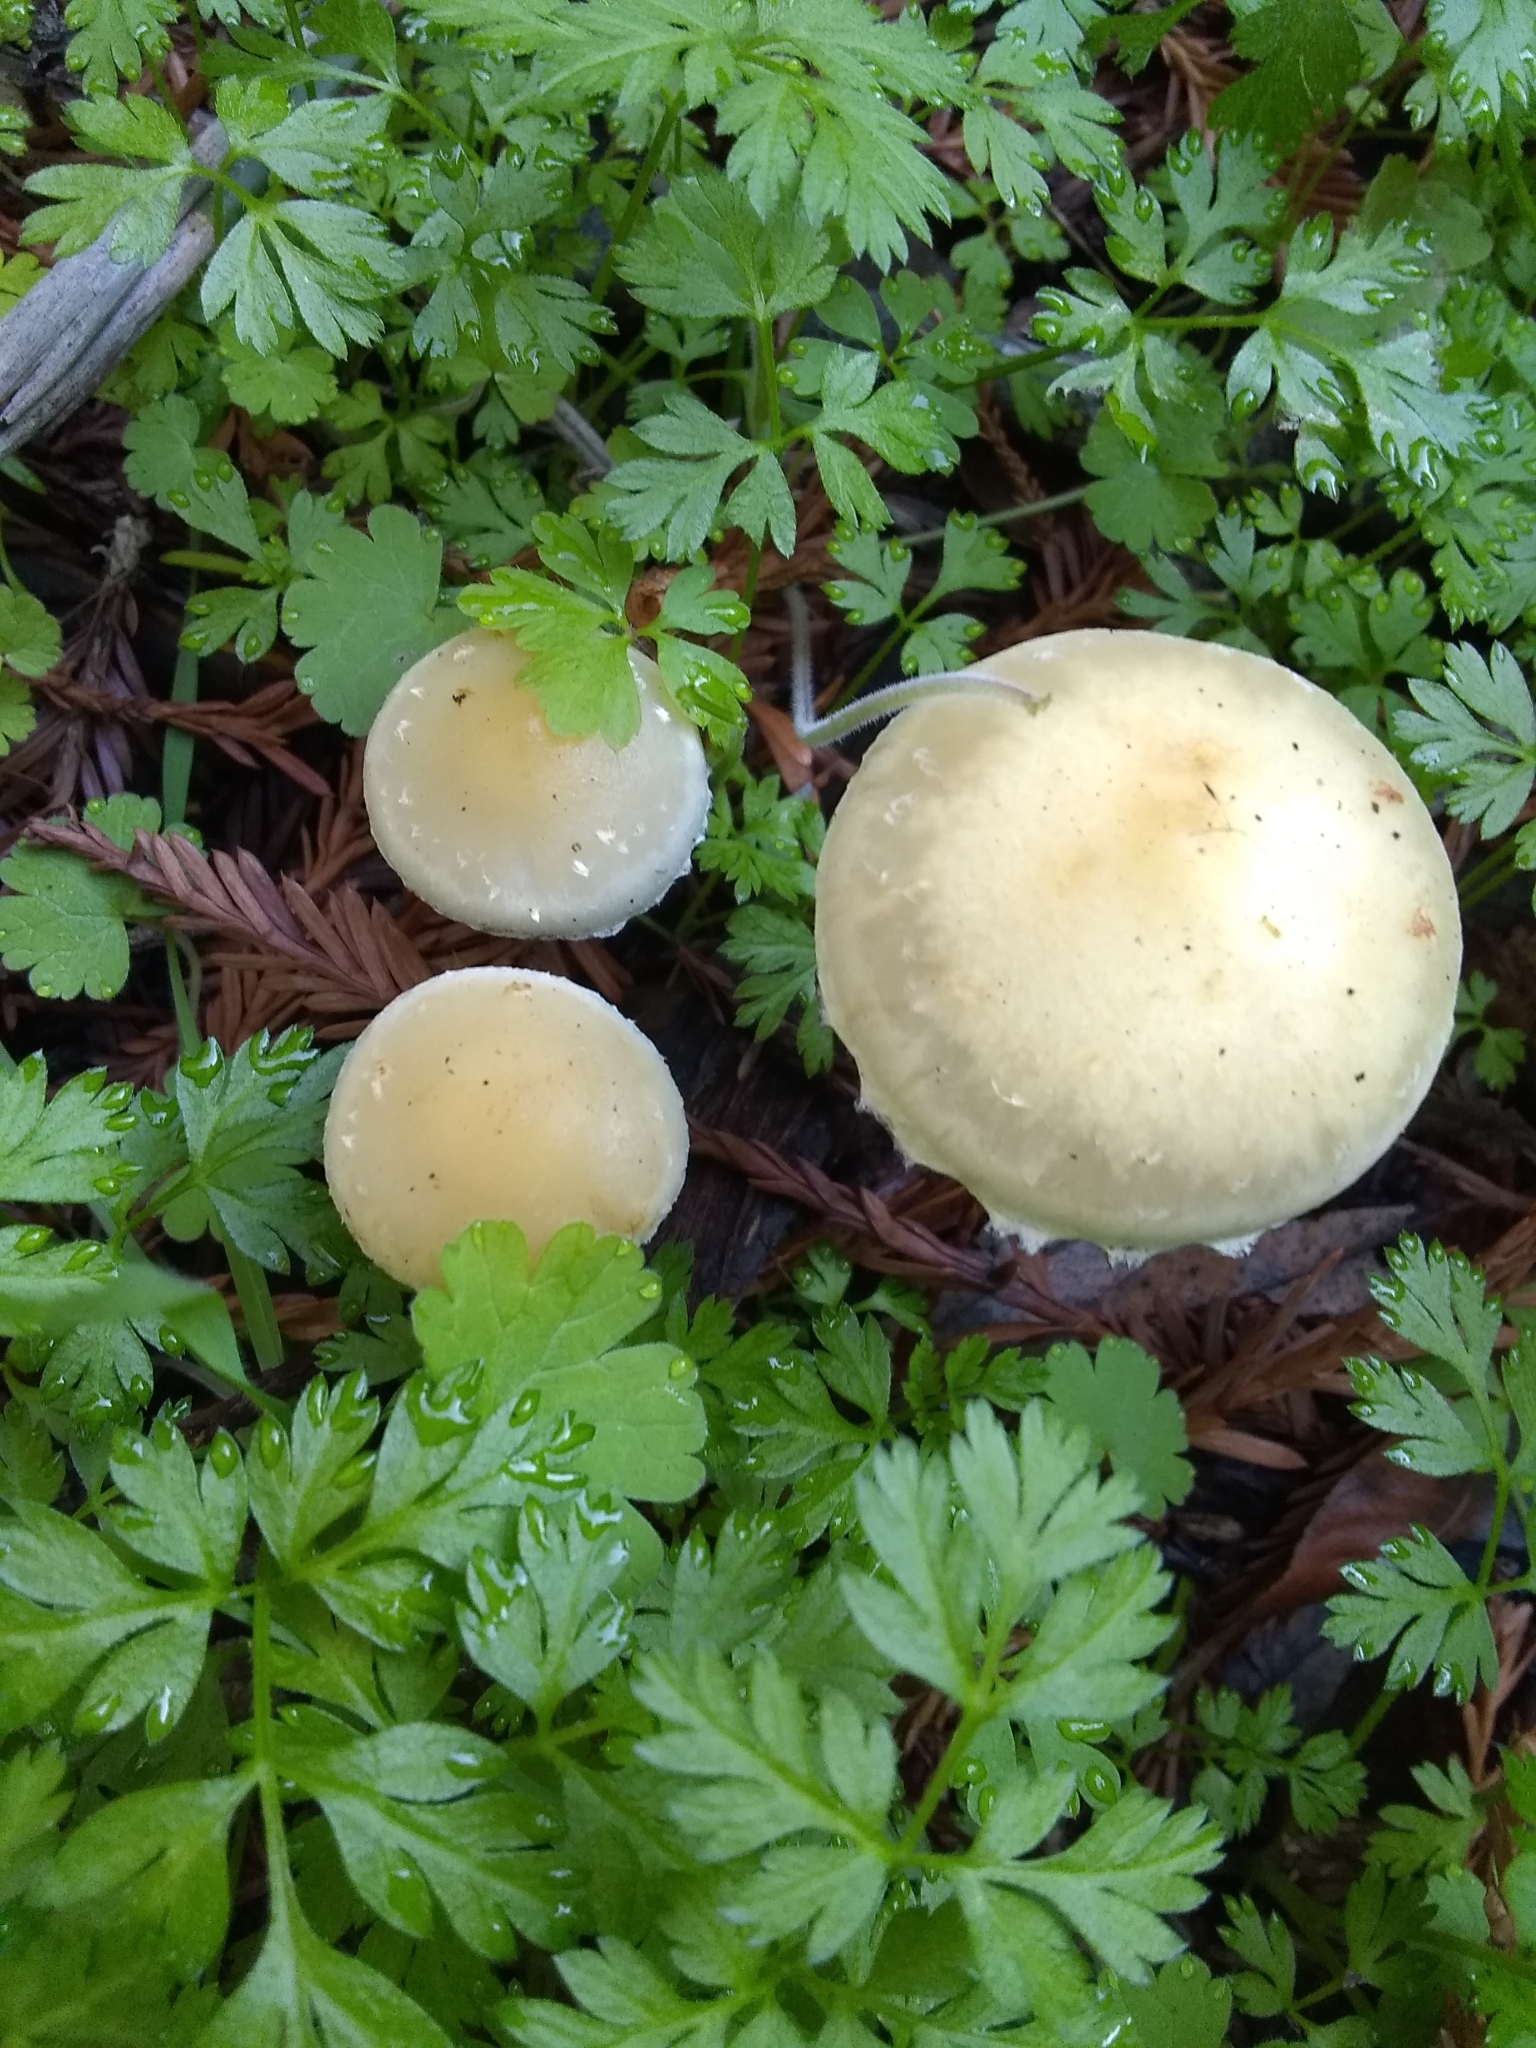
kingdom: Fungi
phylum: Basidiomycota
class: Agaricomycetes
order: Agaricales
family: Strophariaceae
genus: Leratiomyces
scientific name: Leratiomyces percevalii
